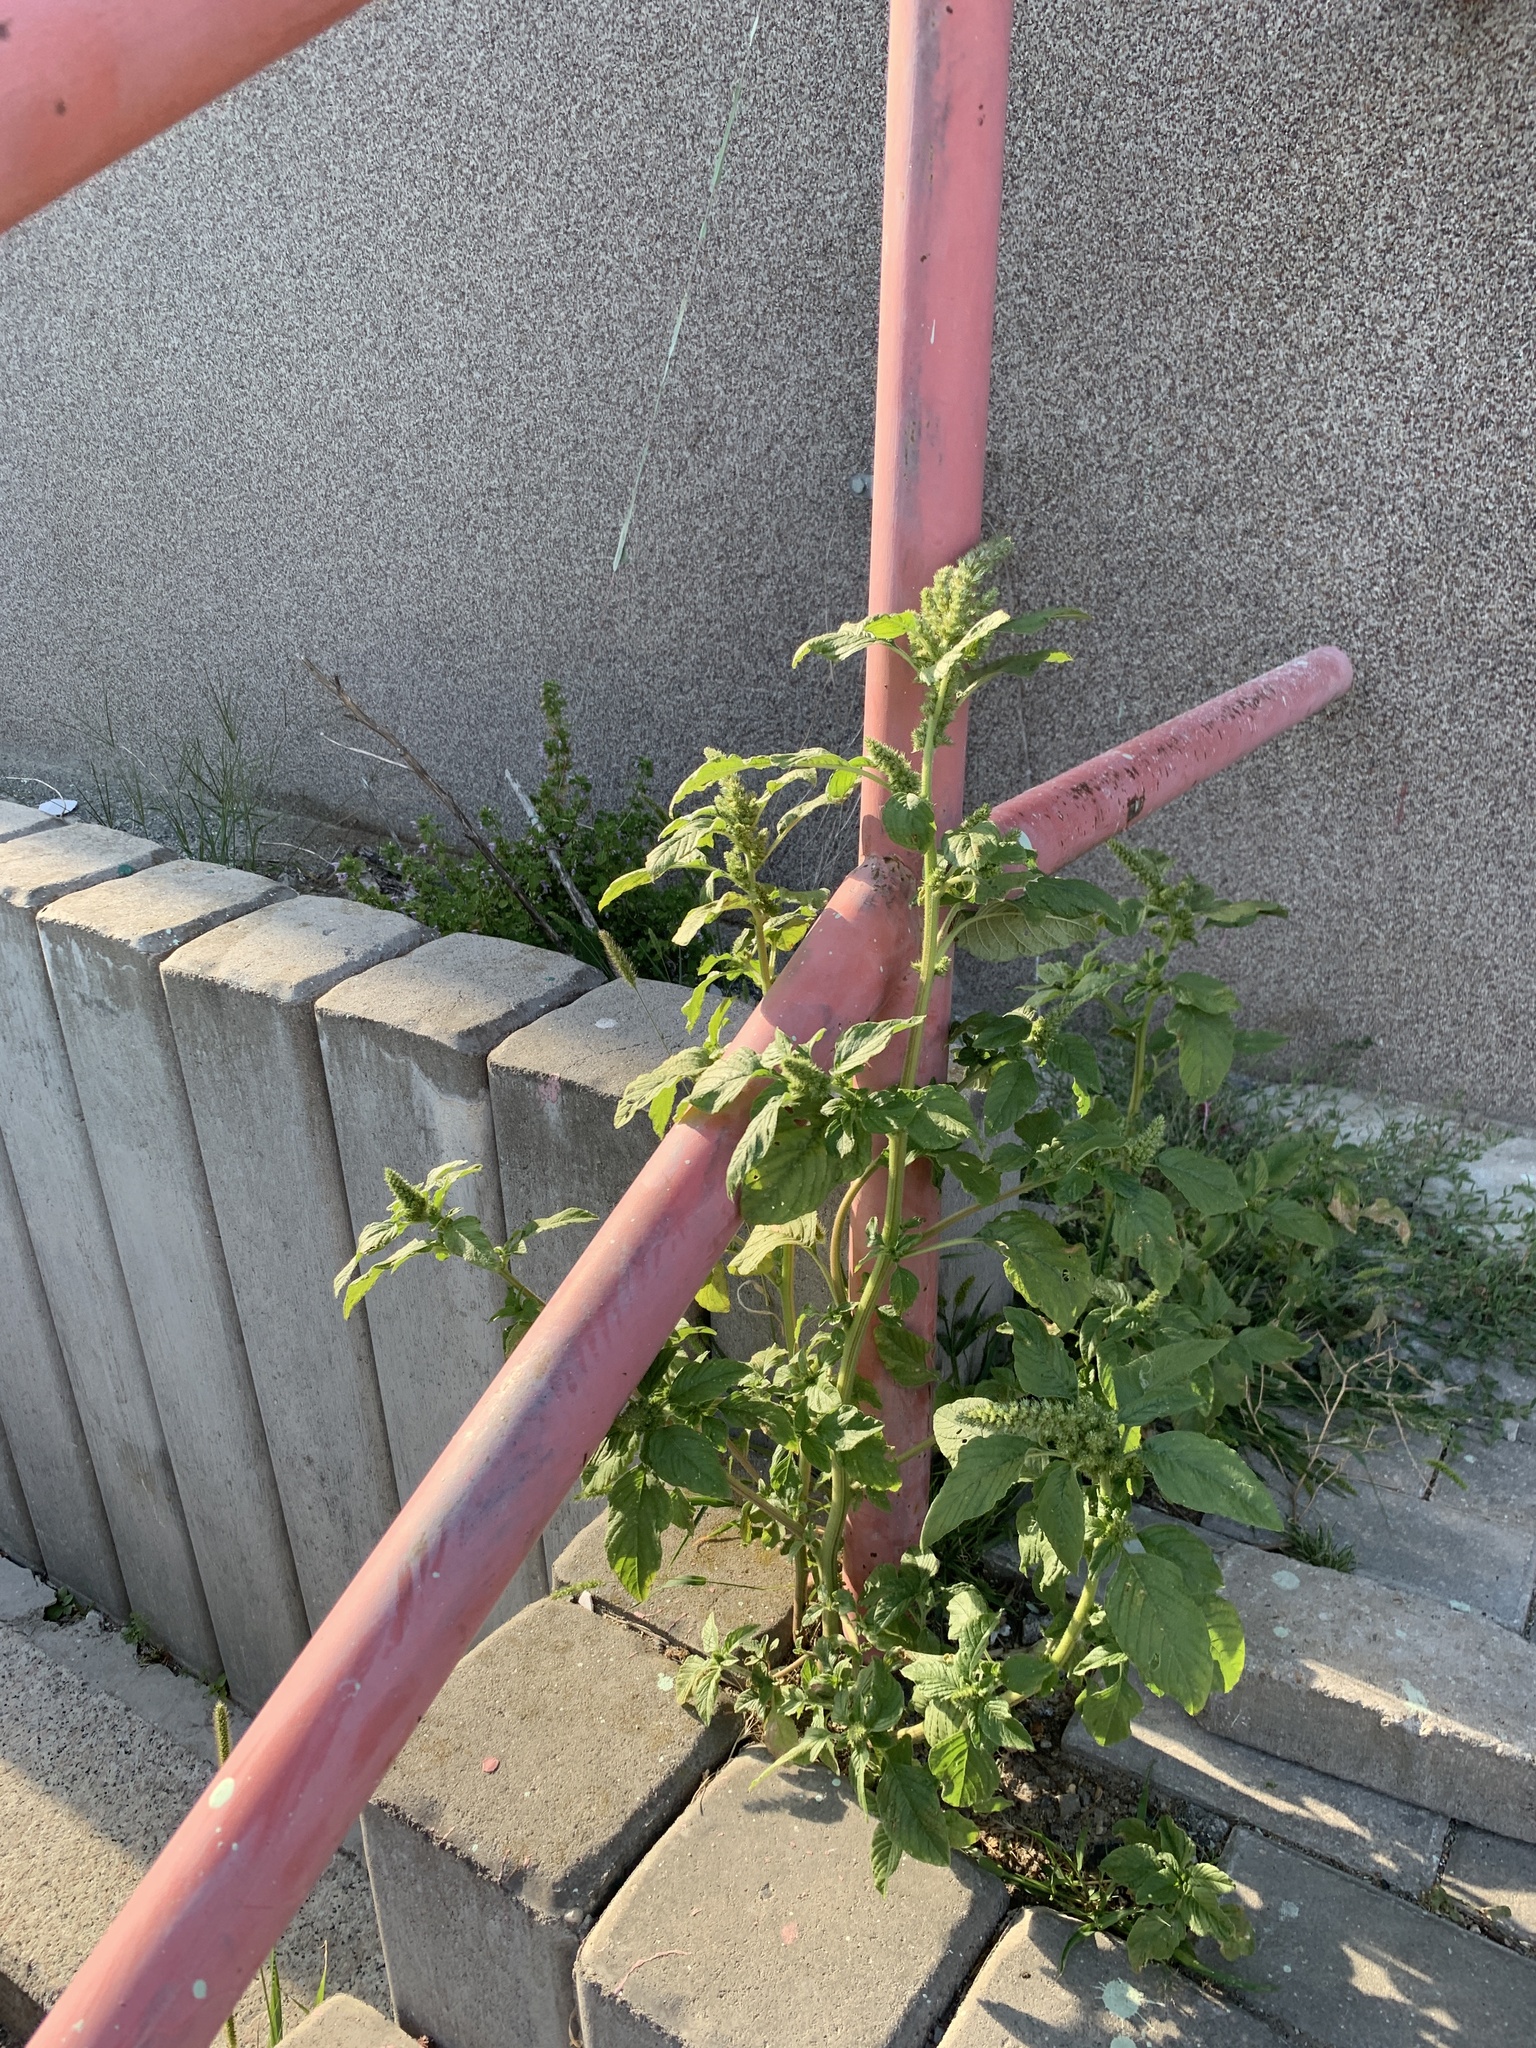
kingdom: Plantae
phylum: Tracheophyta
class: Magnoliopsida
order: Caryophyllales
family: Amaranthaceae
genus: Amaranthus
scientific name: Amaranthus retroflexus
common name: Redroot amaranth
